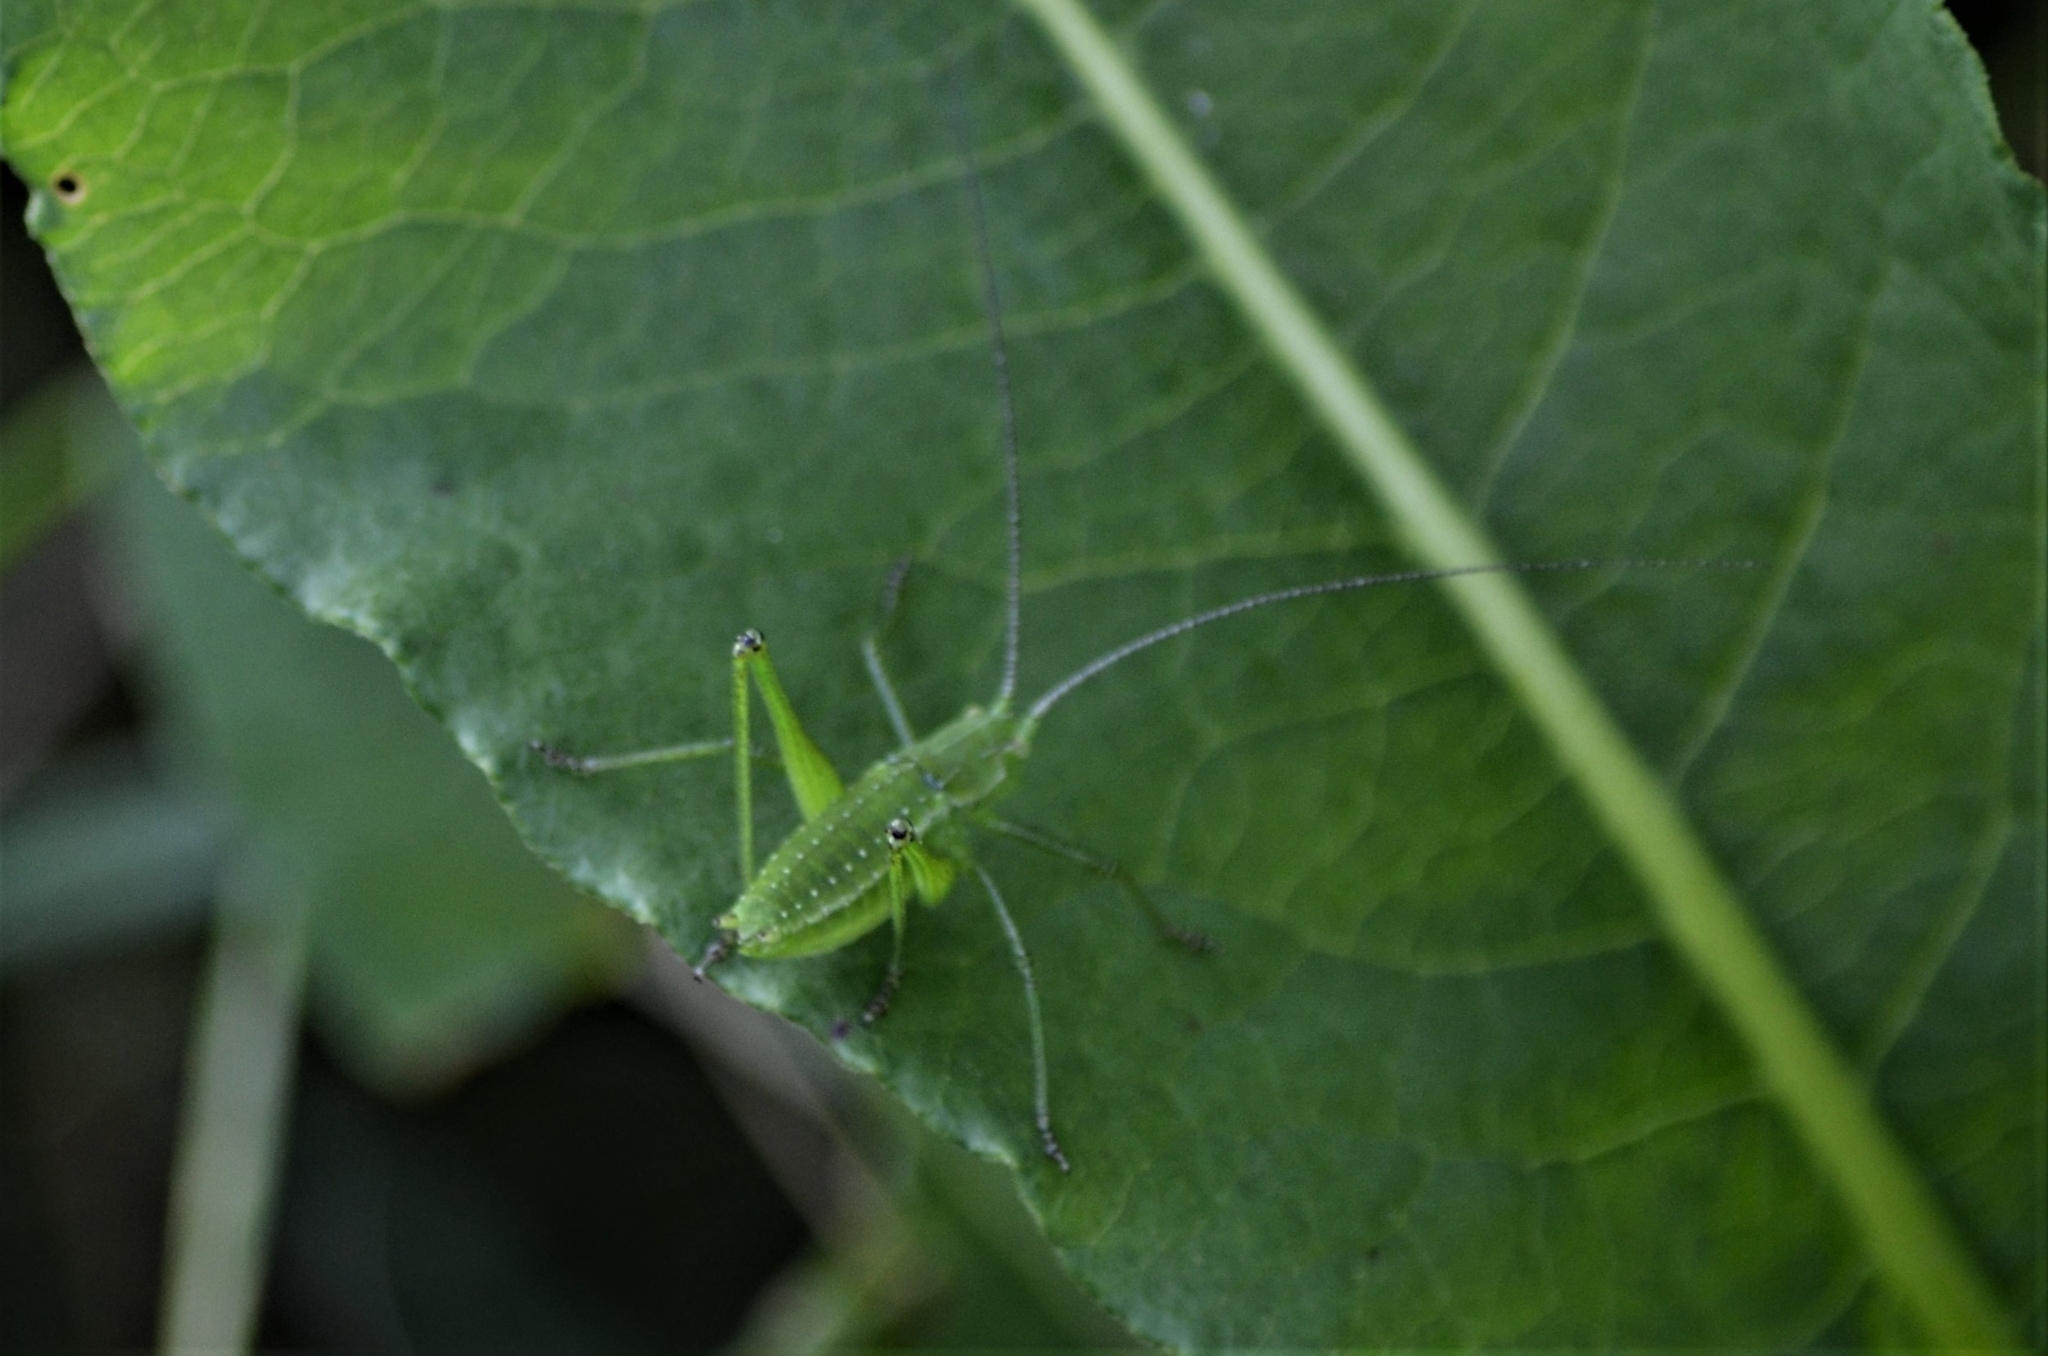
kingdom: Animalia
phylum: Arthropoda
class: Insecta
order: Orthoptera
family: Tettigoniidae
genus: Leptophyes
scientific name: Leptophyes boscii
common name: Balkan speckled bush-cricket
